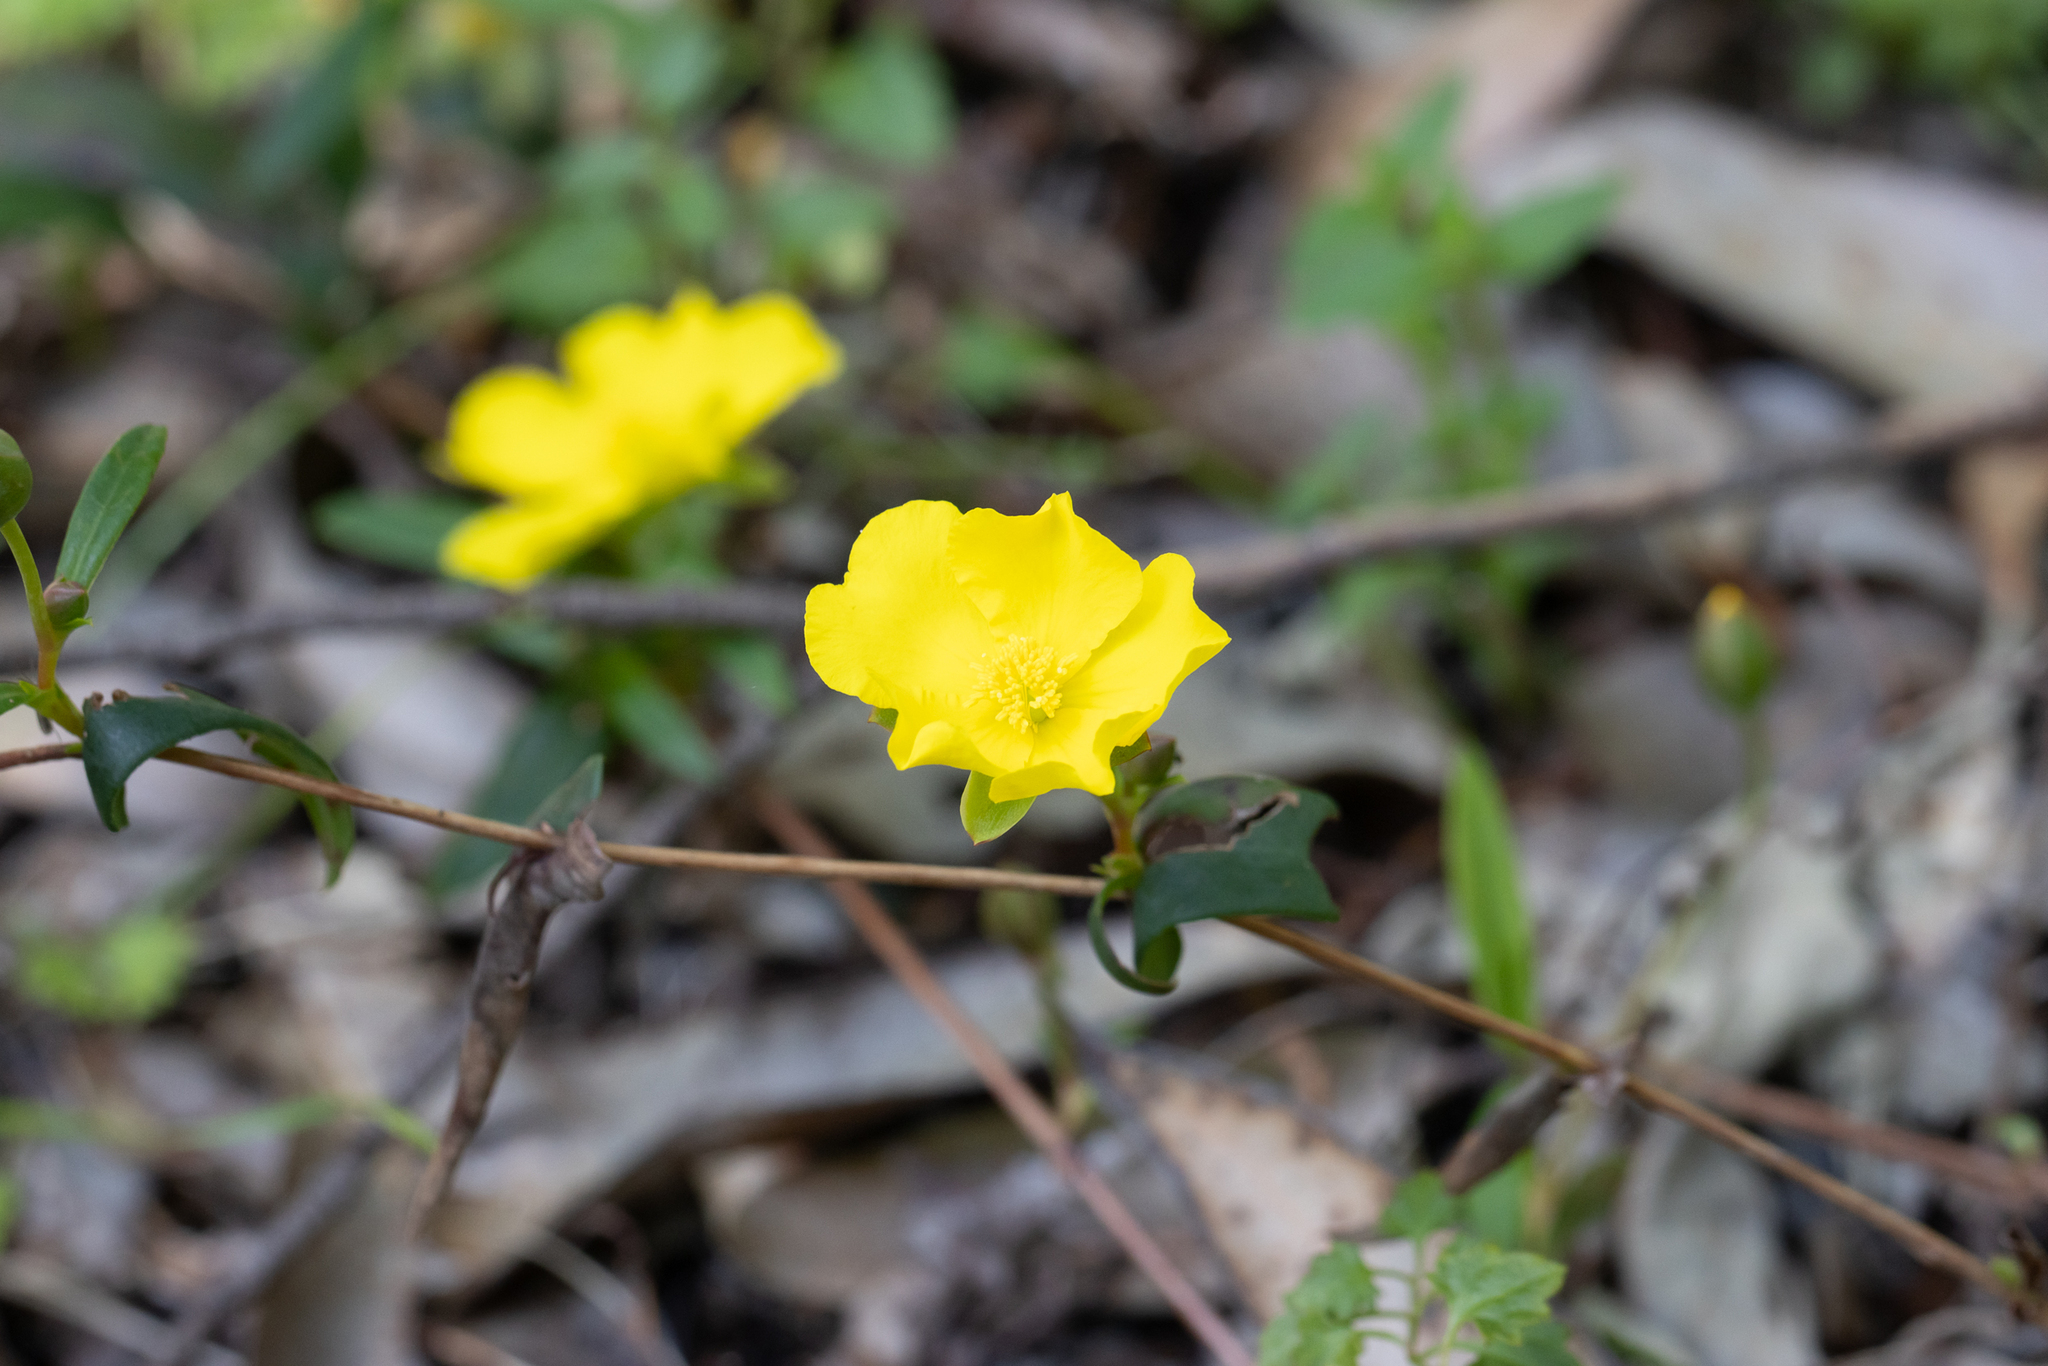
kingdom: Plantae
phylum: Tracheophyta
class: Magnoliopsida
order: Dilleniales
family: Dilleniaceae
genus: Hibbertia
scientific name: Hibbertia cunninghamii
